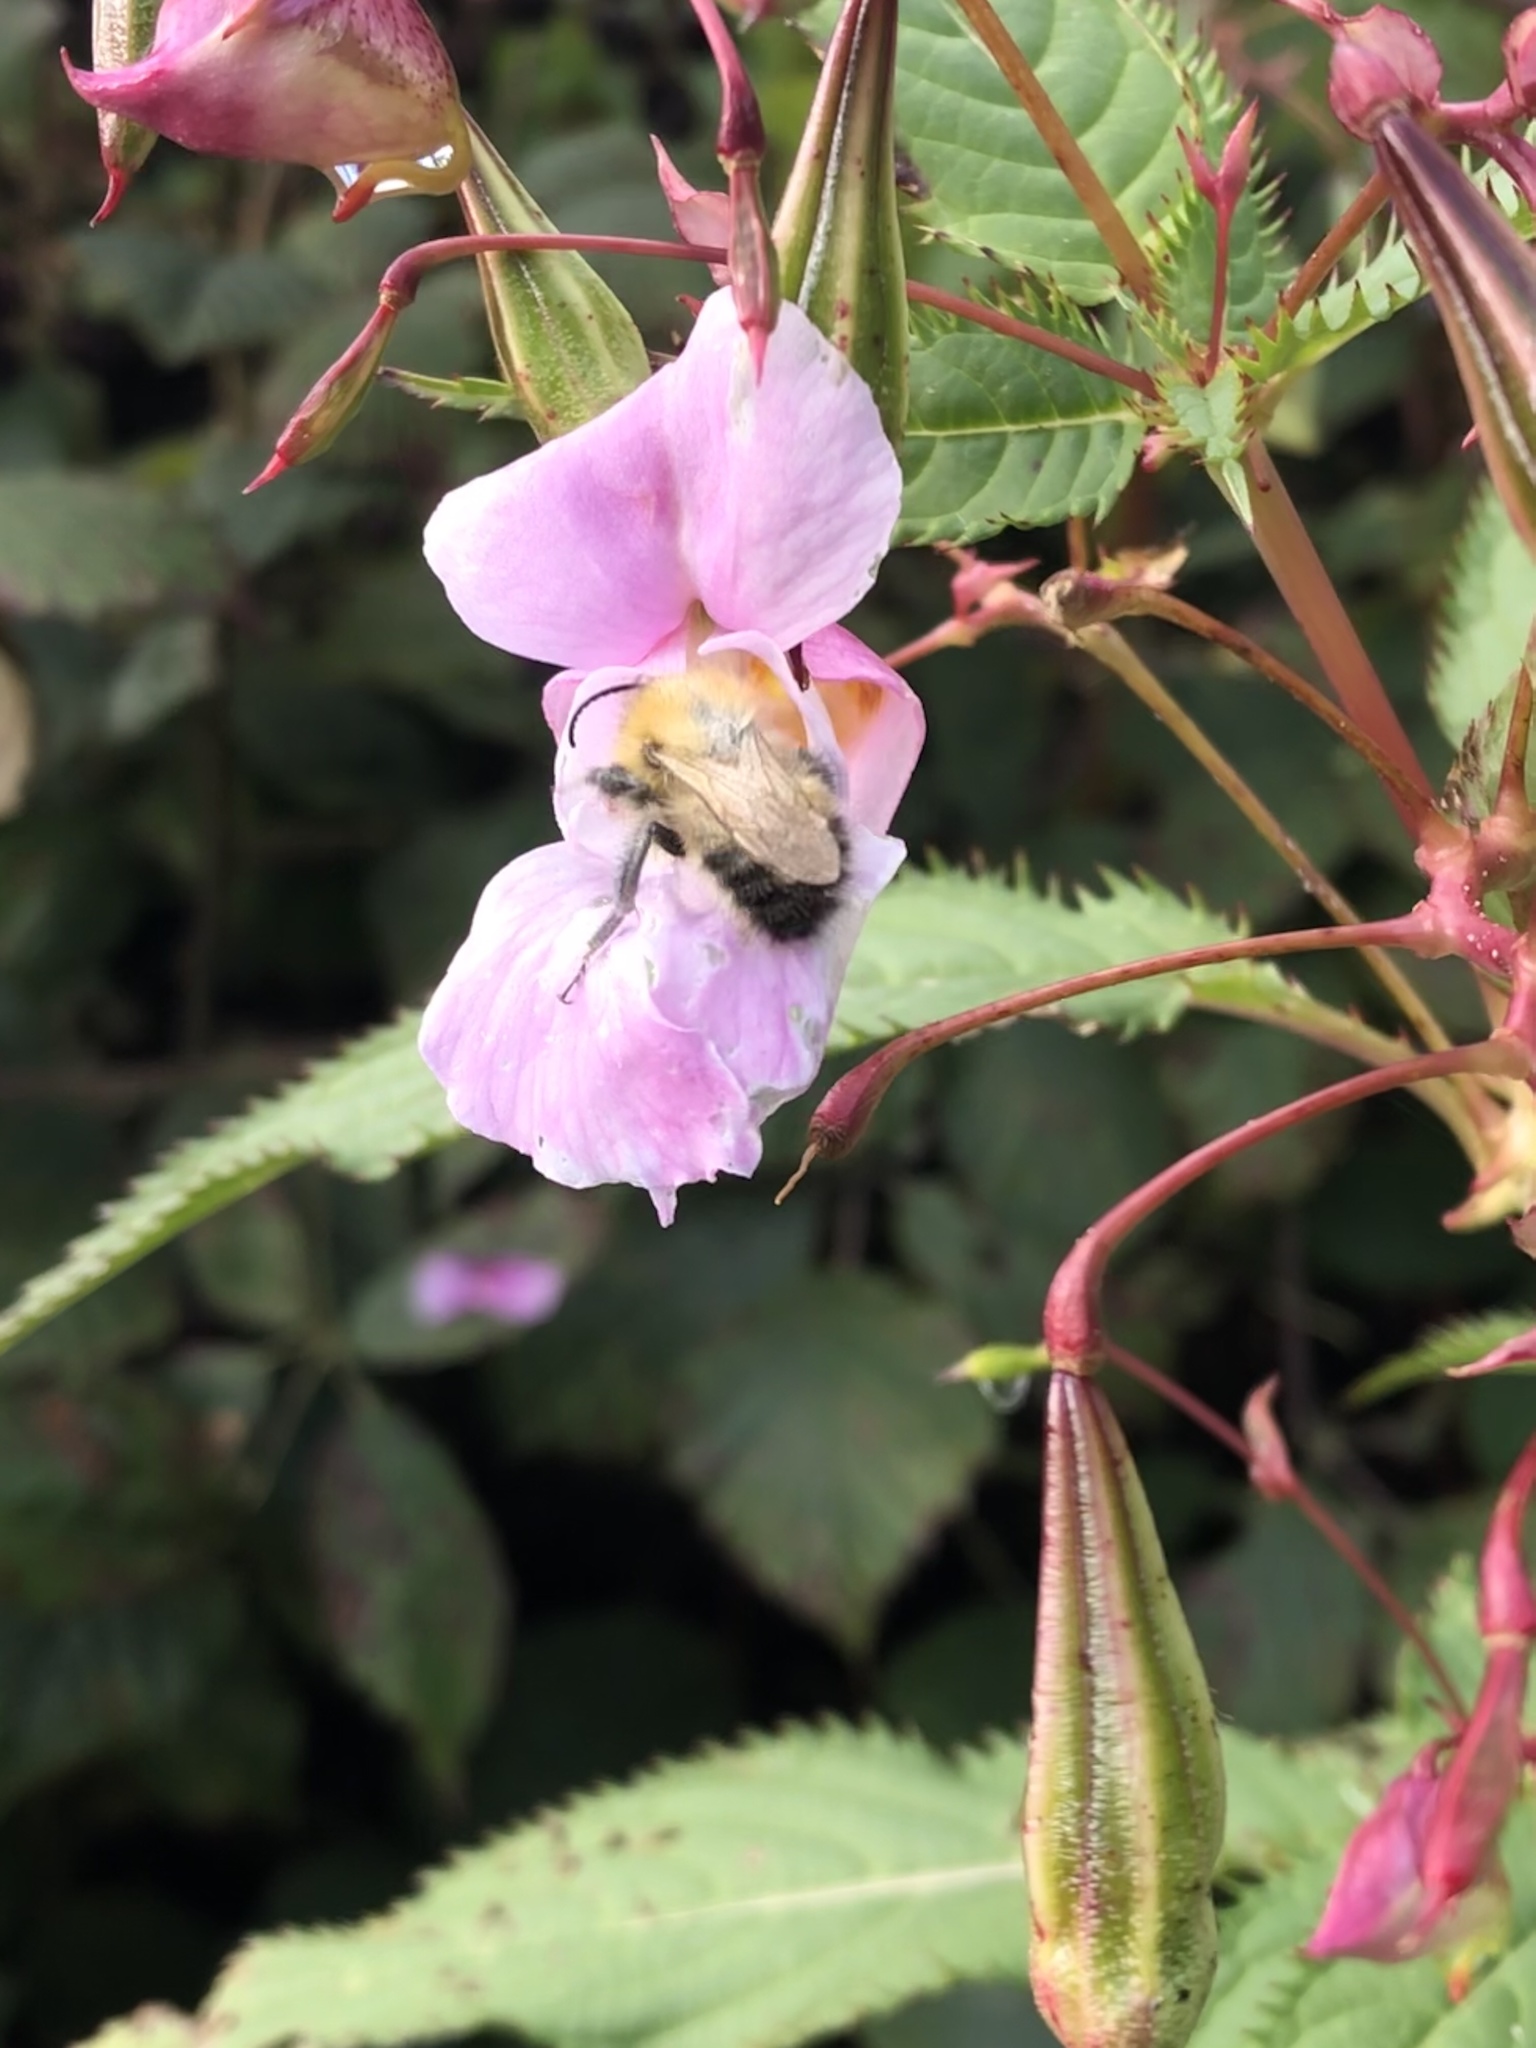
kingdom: Animalia
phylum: Arthropoda
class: Insecta
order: Hymenoptera
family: Apidae
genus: Bombus
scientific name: Bombus pascuorum
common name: Common carder bee
